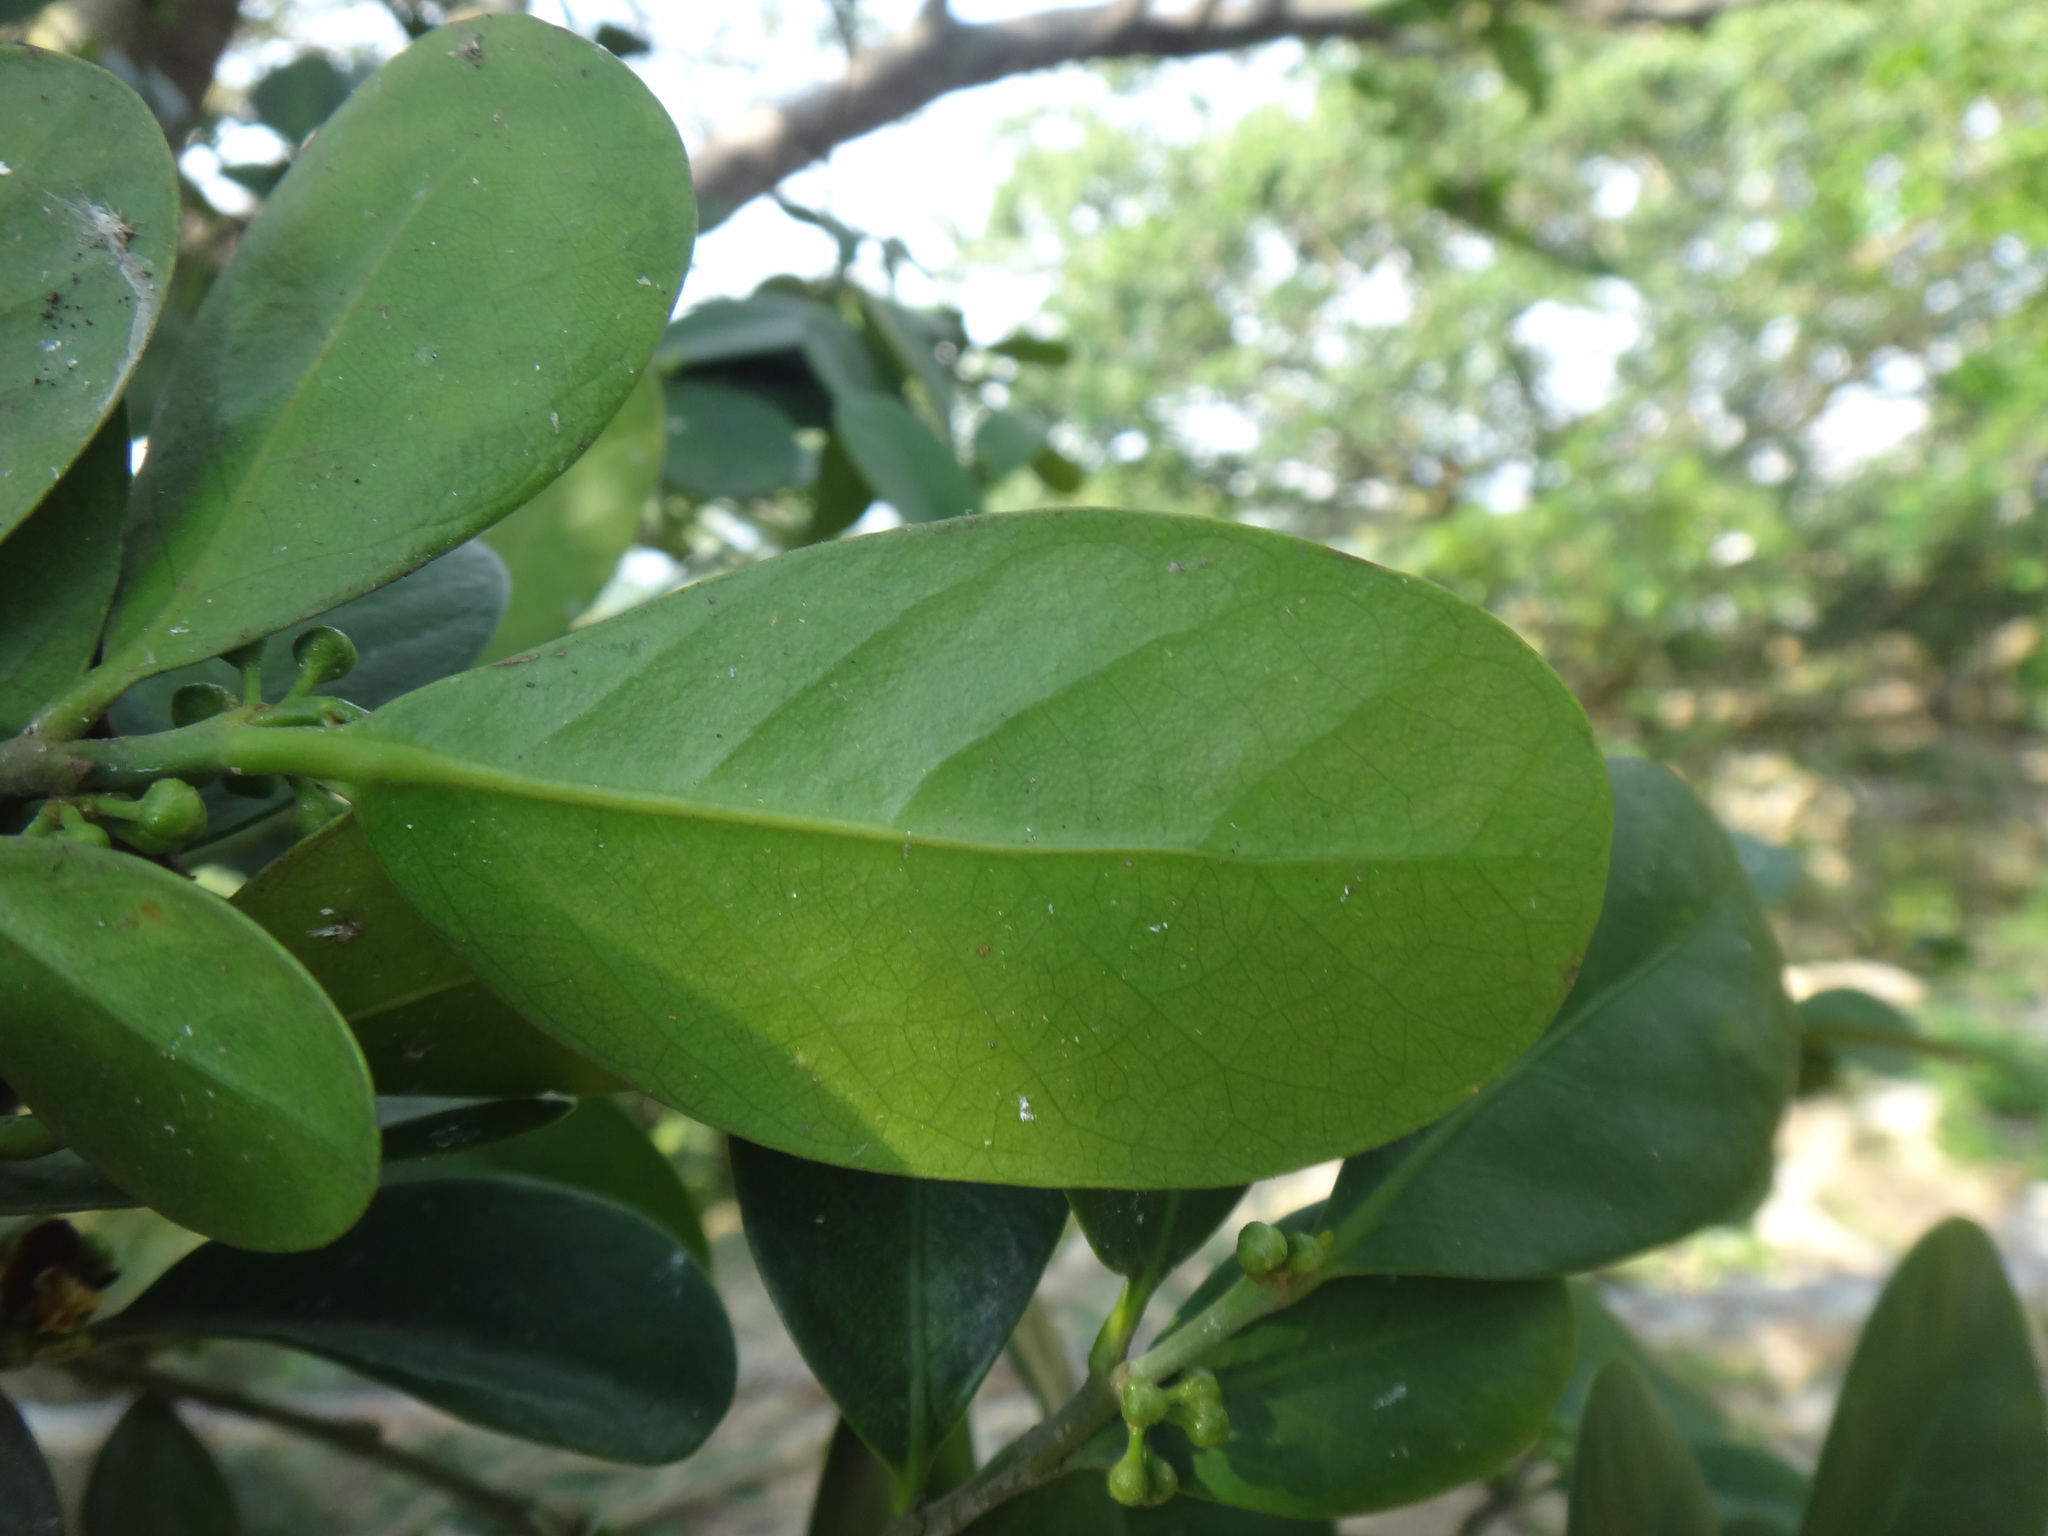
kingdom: Plantae
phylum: Tracheophyta
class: Magnoliopsida
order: Malpighiales
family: Euphorbiaceae
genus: Suregada
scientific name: Suregada aequorea
